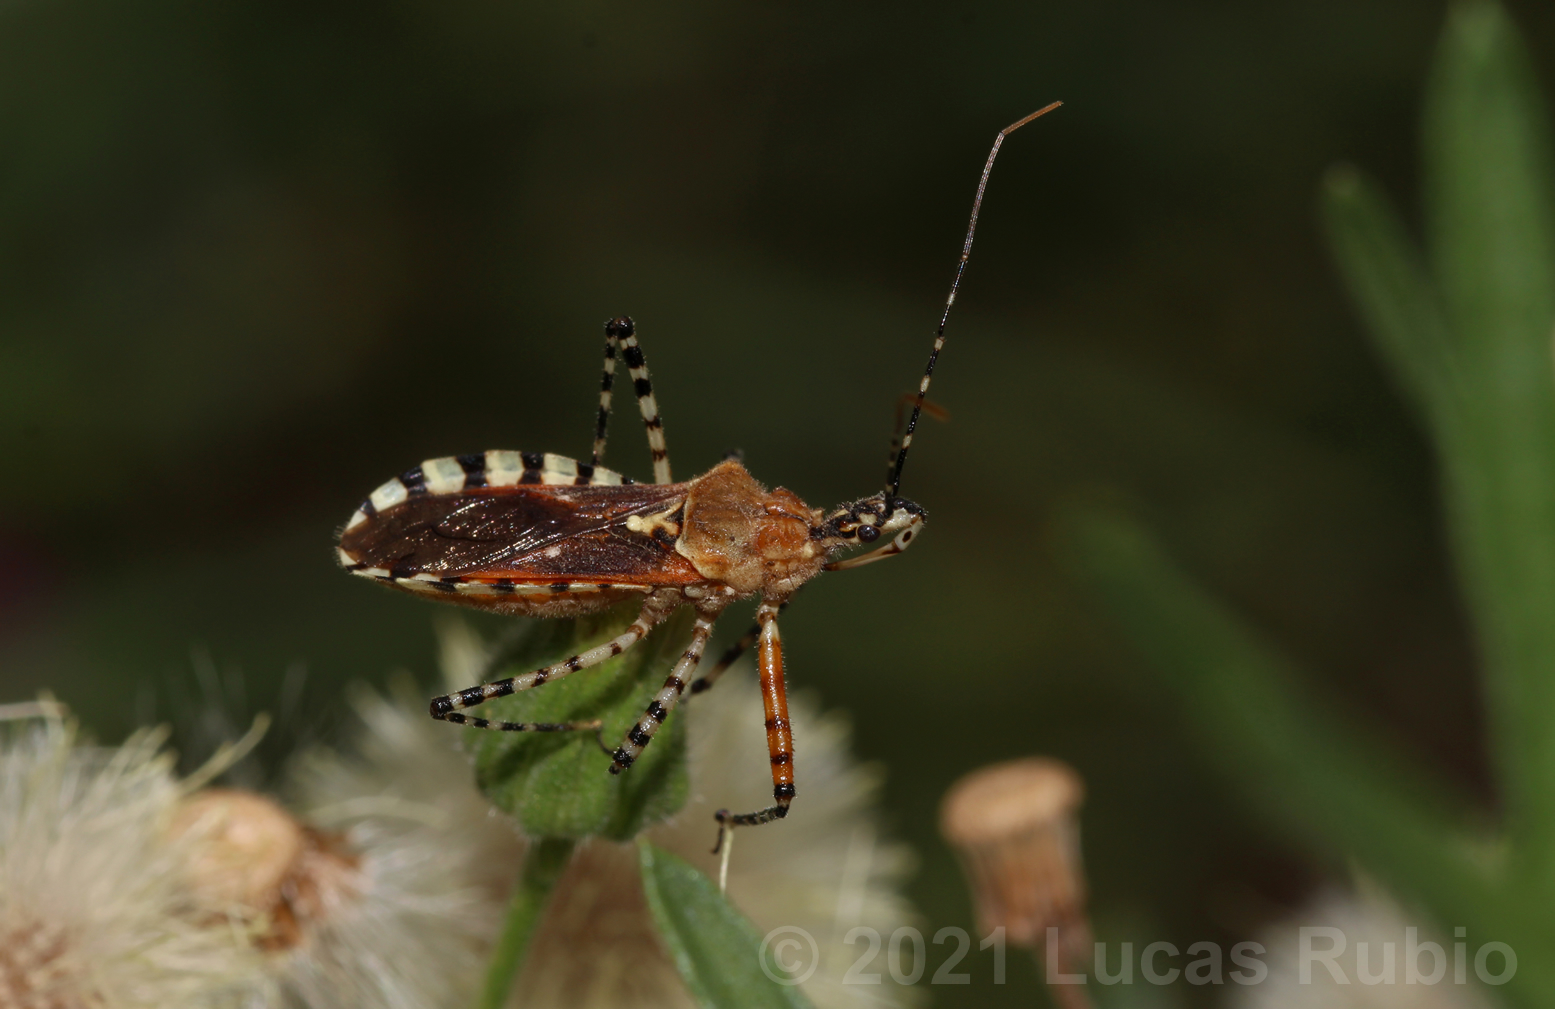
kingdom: Animalia
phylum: Arthropoda
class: Insecta
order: Hemiptera
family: Reduviidae
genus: Cosmoclopius
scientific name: Cosmoclopius nigroannulatus
